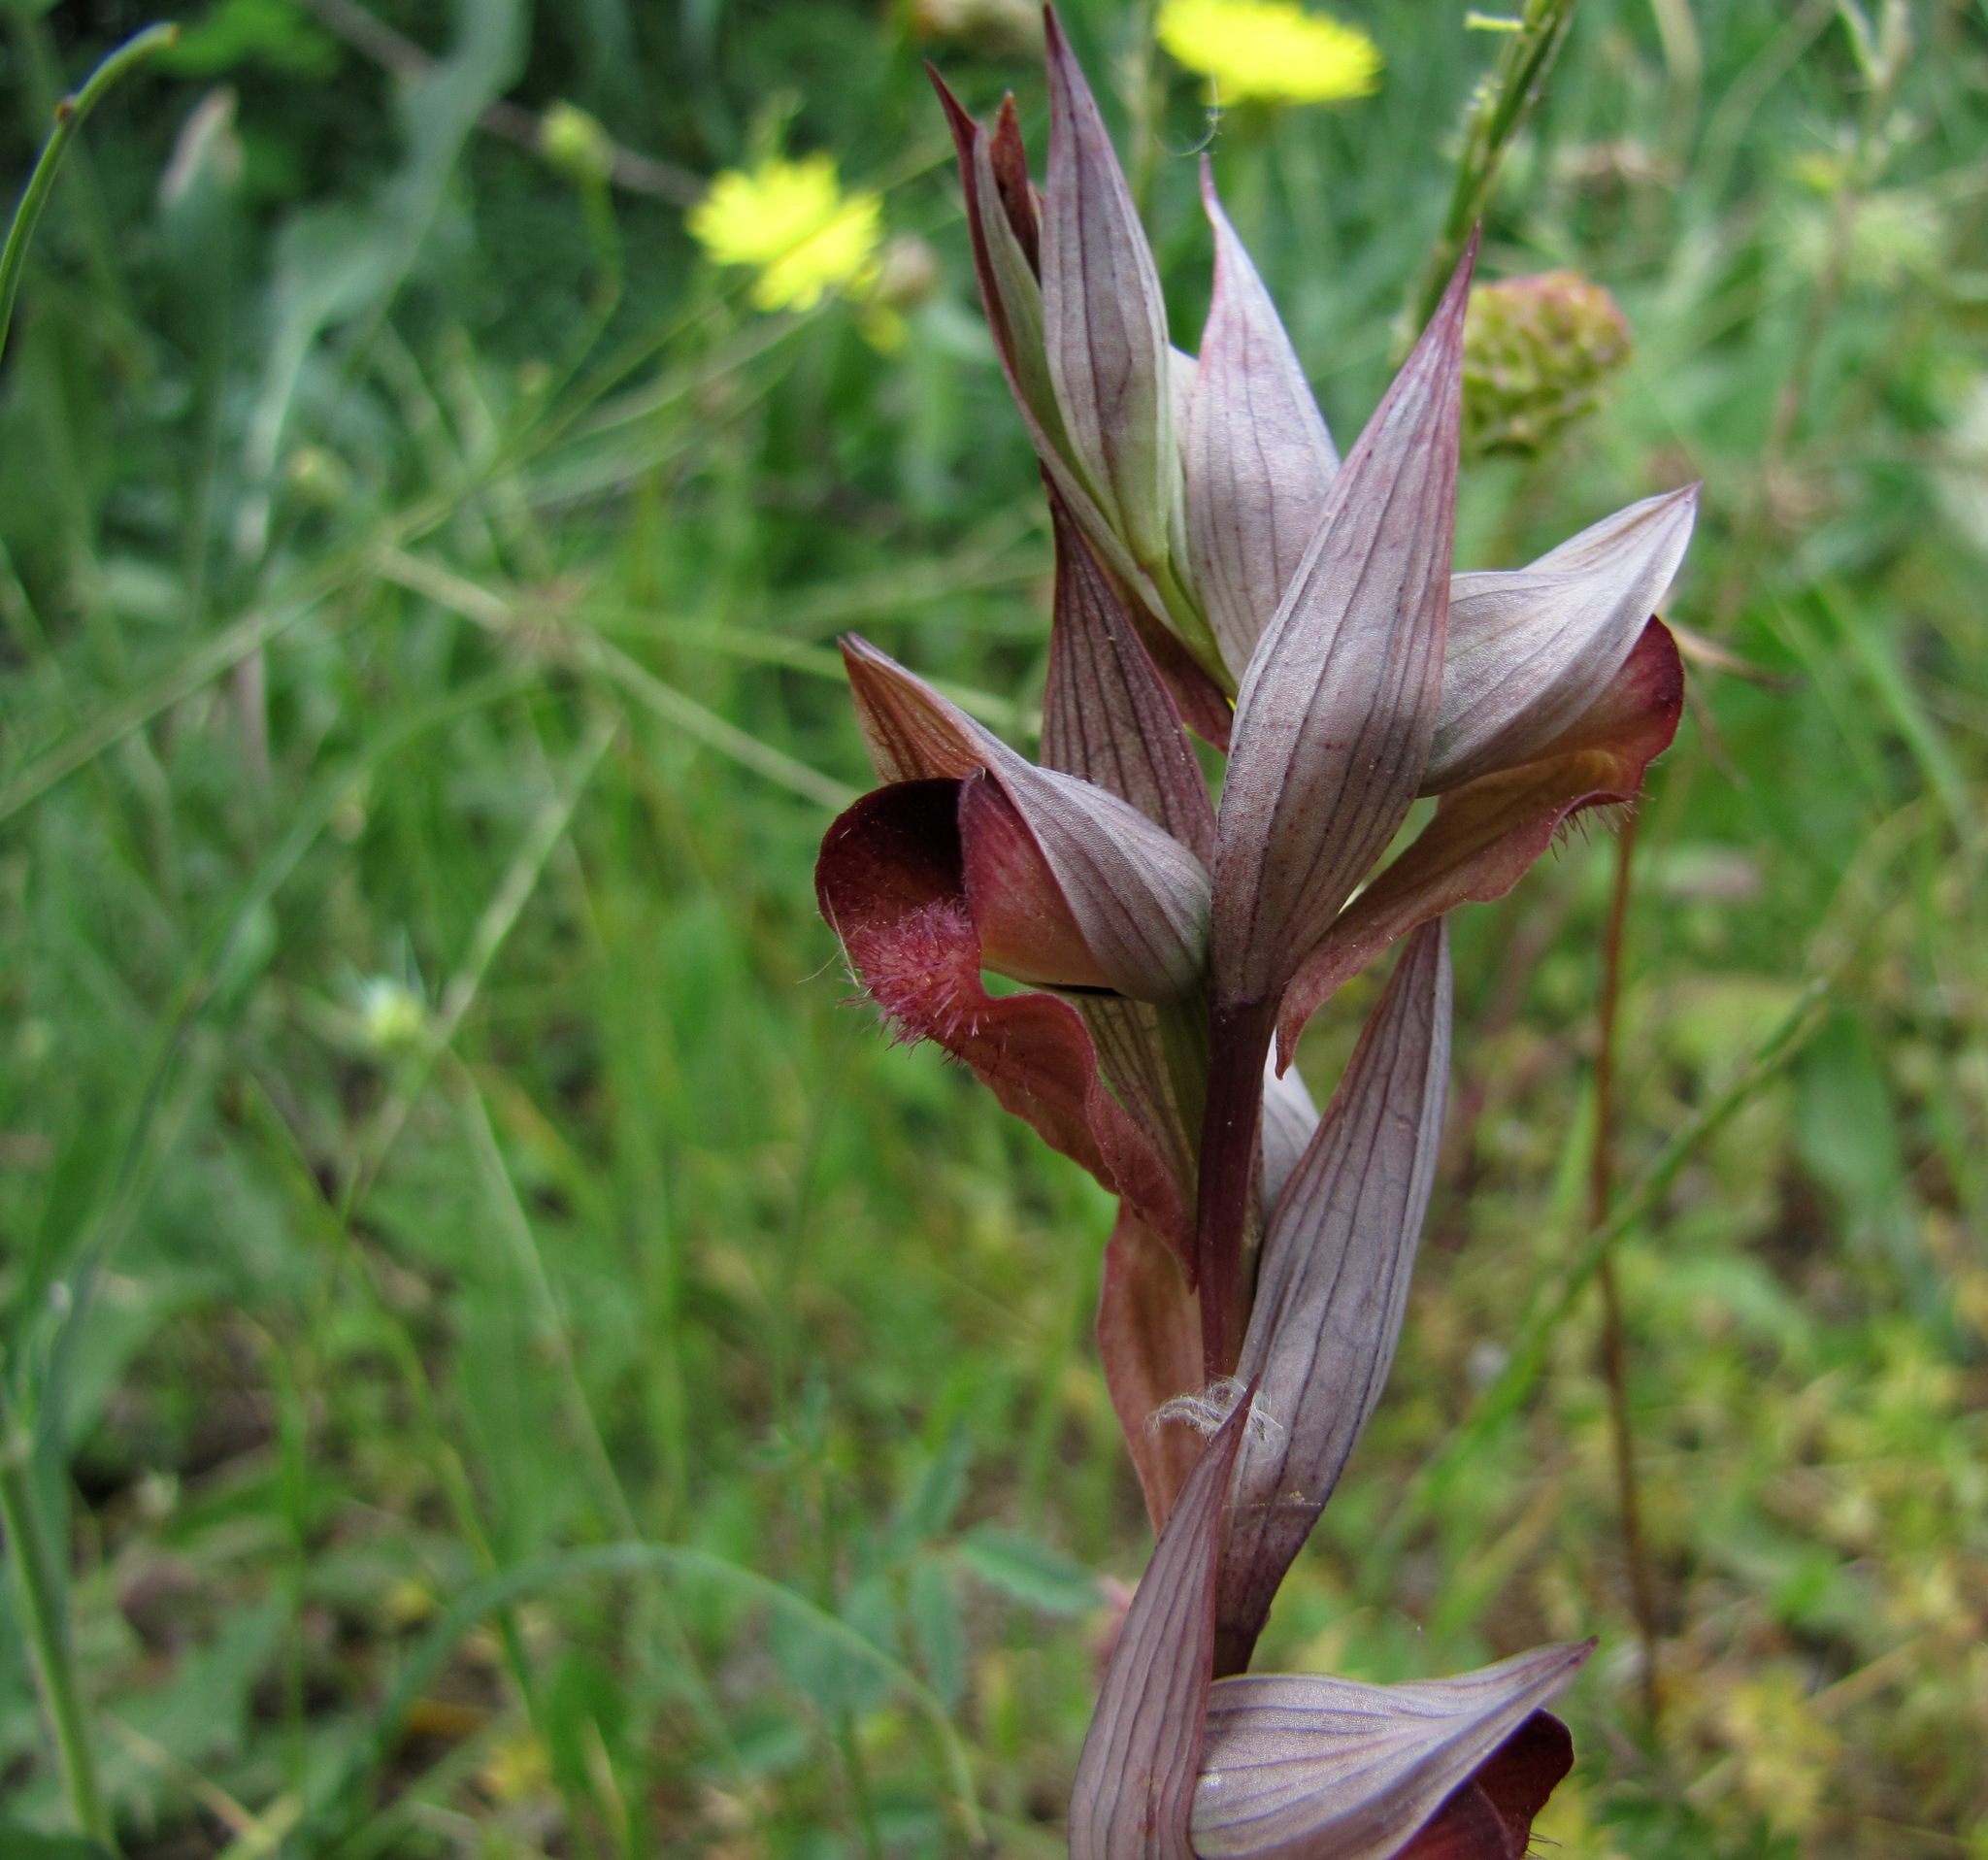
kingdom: Plantae
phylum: Tracheophyta
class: Liliopsida
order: Asparagales
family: Orchidaceae
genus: Serapias
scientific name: Serapias vomeracea
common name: Long-lipped tongue-orchid
